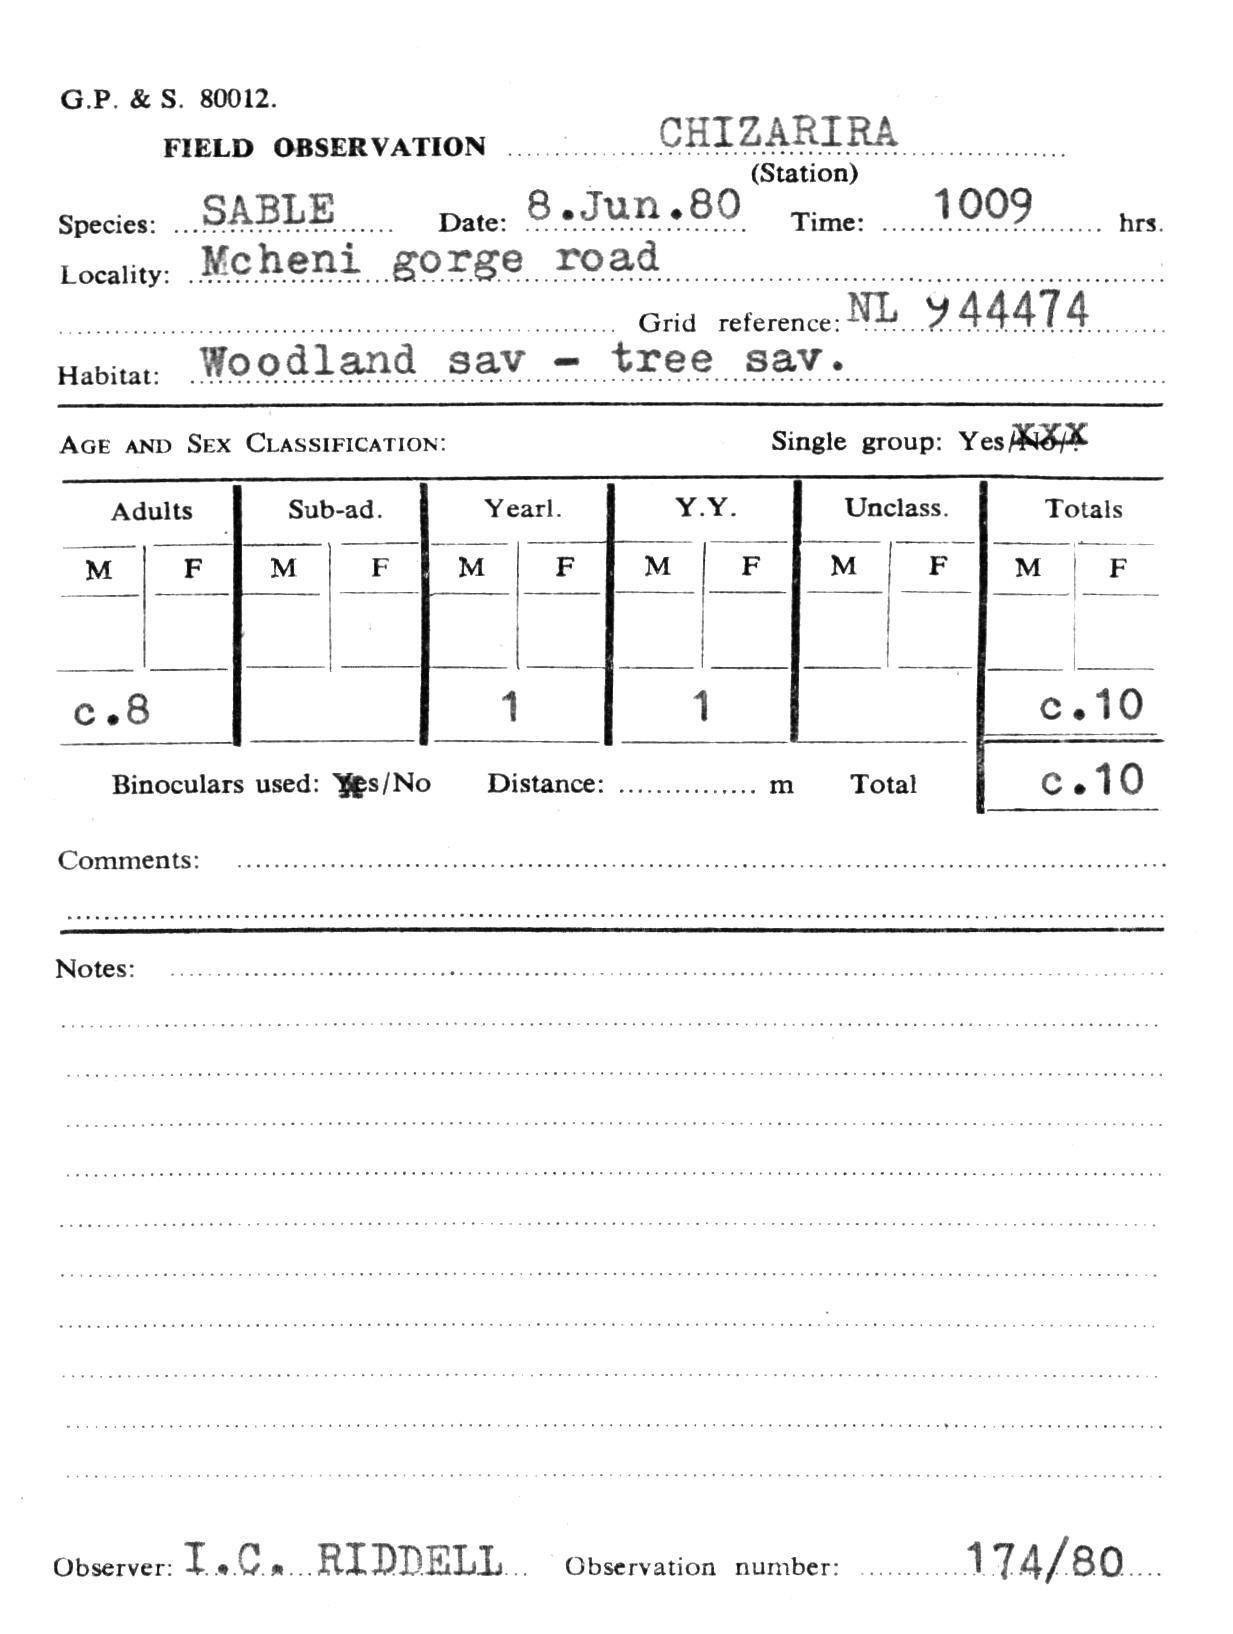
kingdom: Animalia
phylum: Chordata
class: Mammalia
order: Artiodactyla
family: Bovidae
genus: Hippotragus
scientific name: Hippotragus niger
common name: Sable antelope
